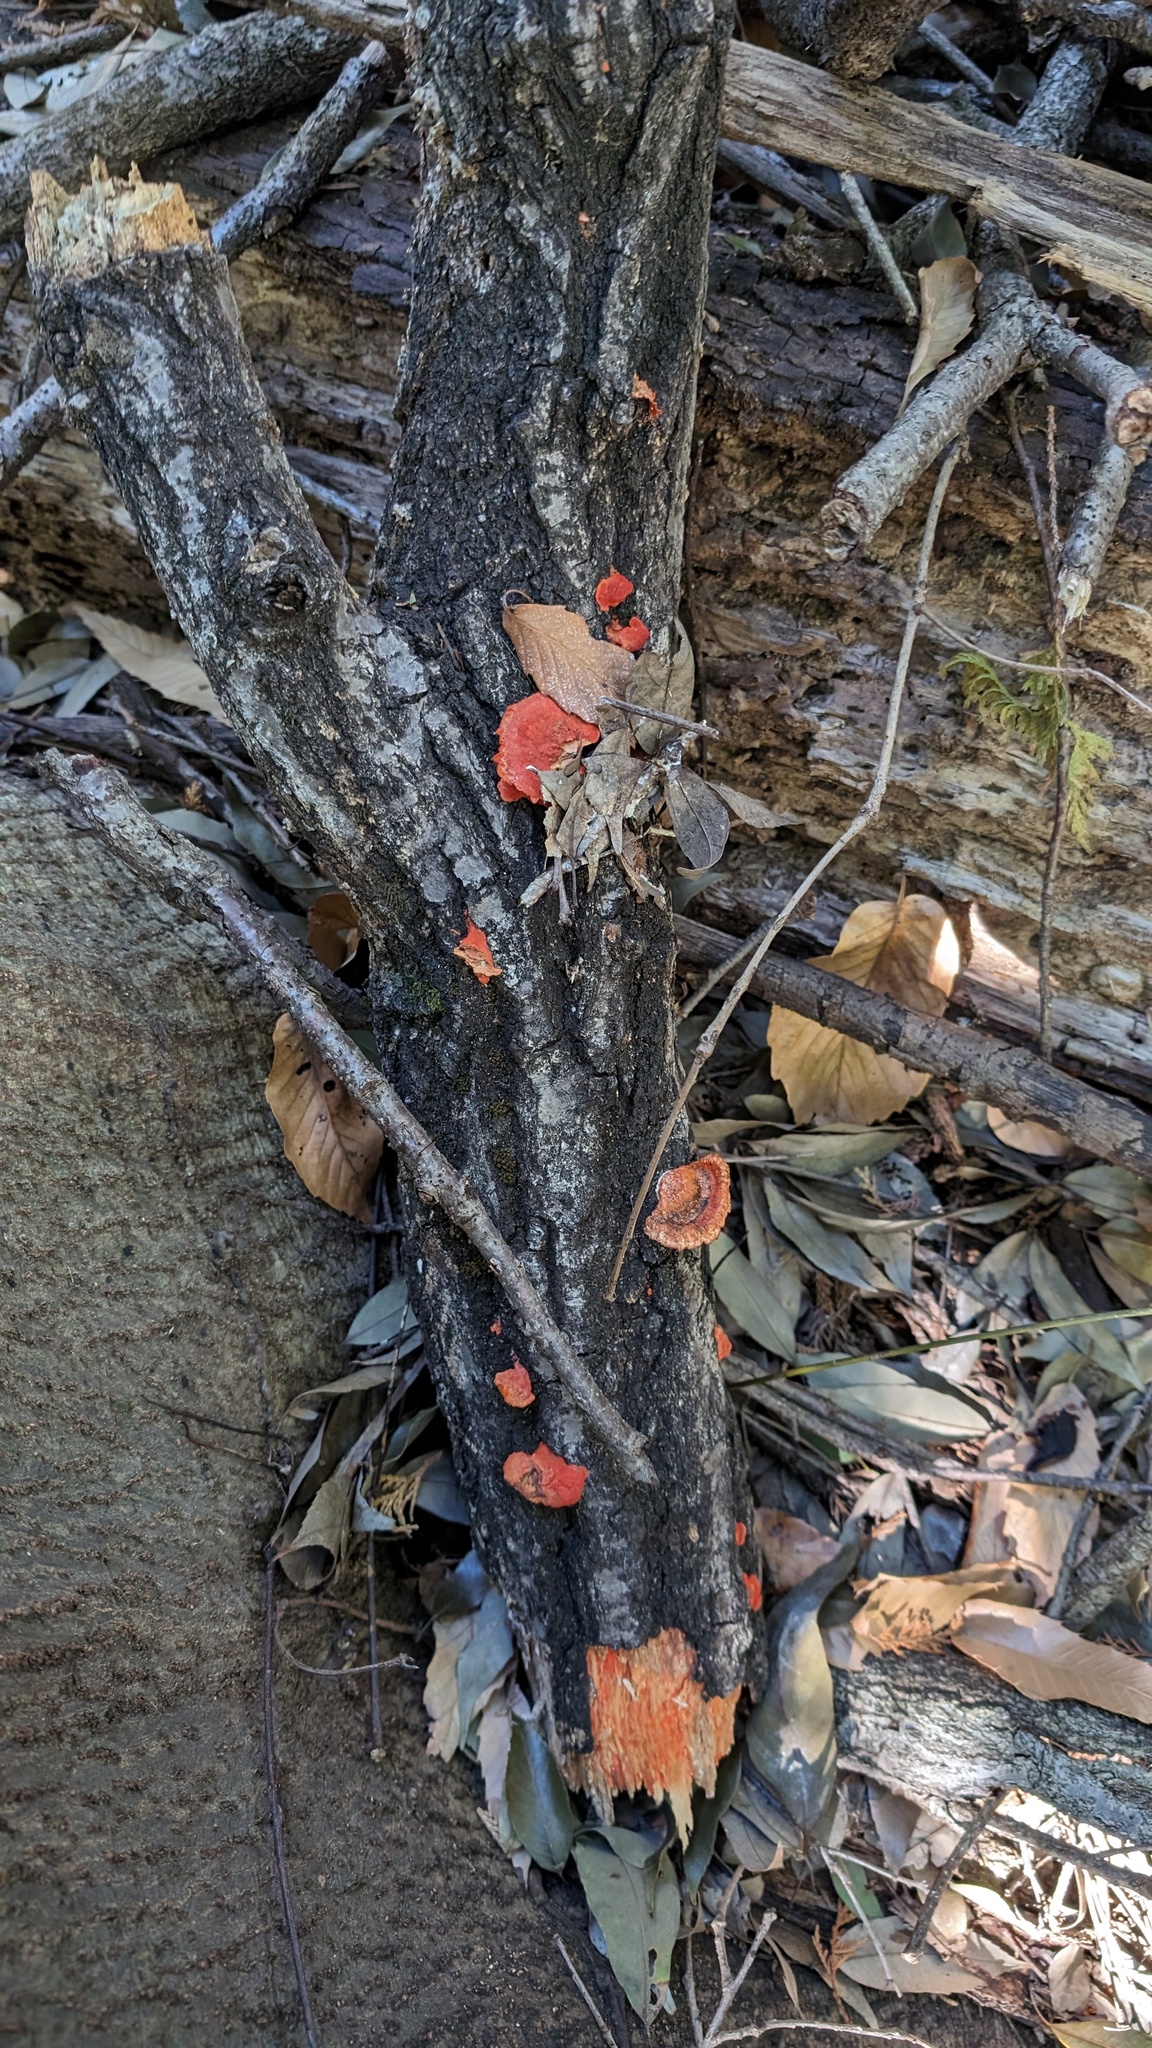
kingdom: Fungi
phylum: Basidiomycota
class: Agaricomycetes
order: Polyporales
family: Polyporaceae
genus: Trametes
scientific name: Trametes coccinea
